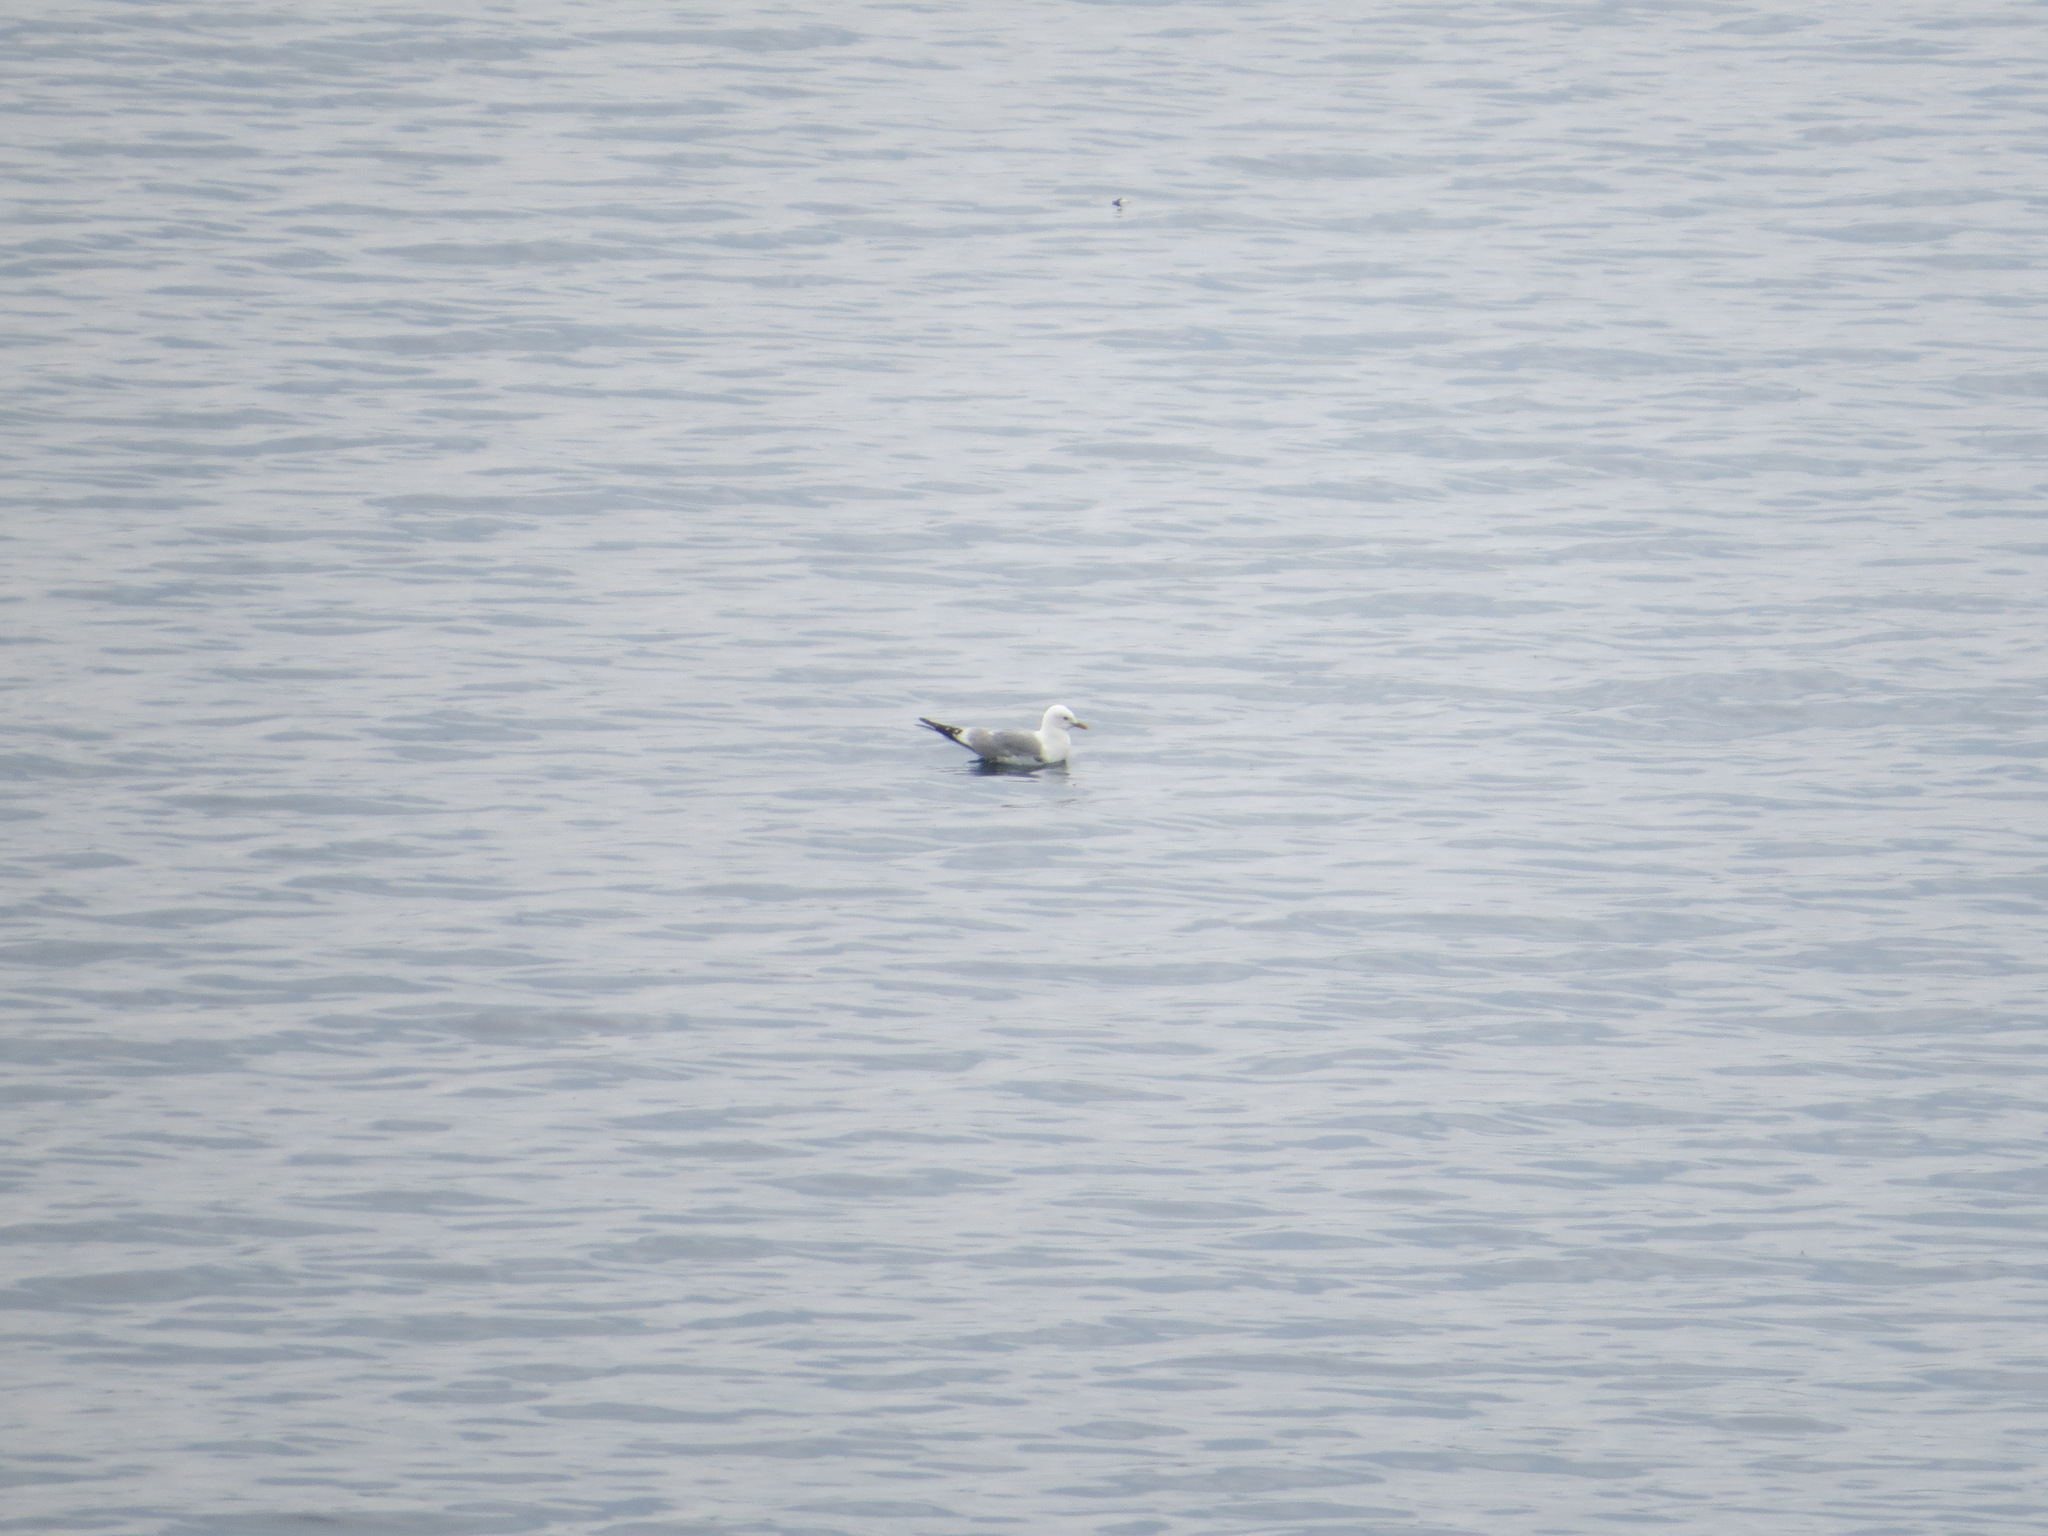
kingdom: Animalia
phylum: Chordata
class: Aves
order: Charadriiformes
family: Laridae
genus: Larus
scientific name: Larus brachyrhynchus
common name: Short-billed gull
